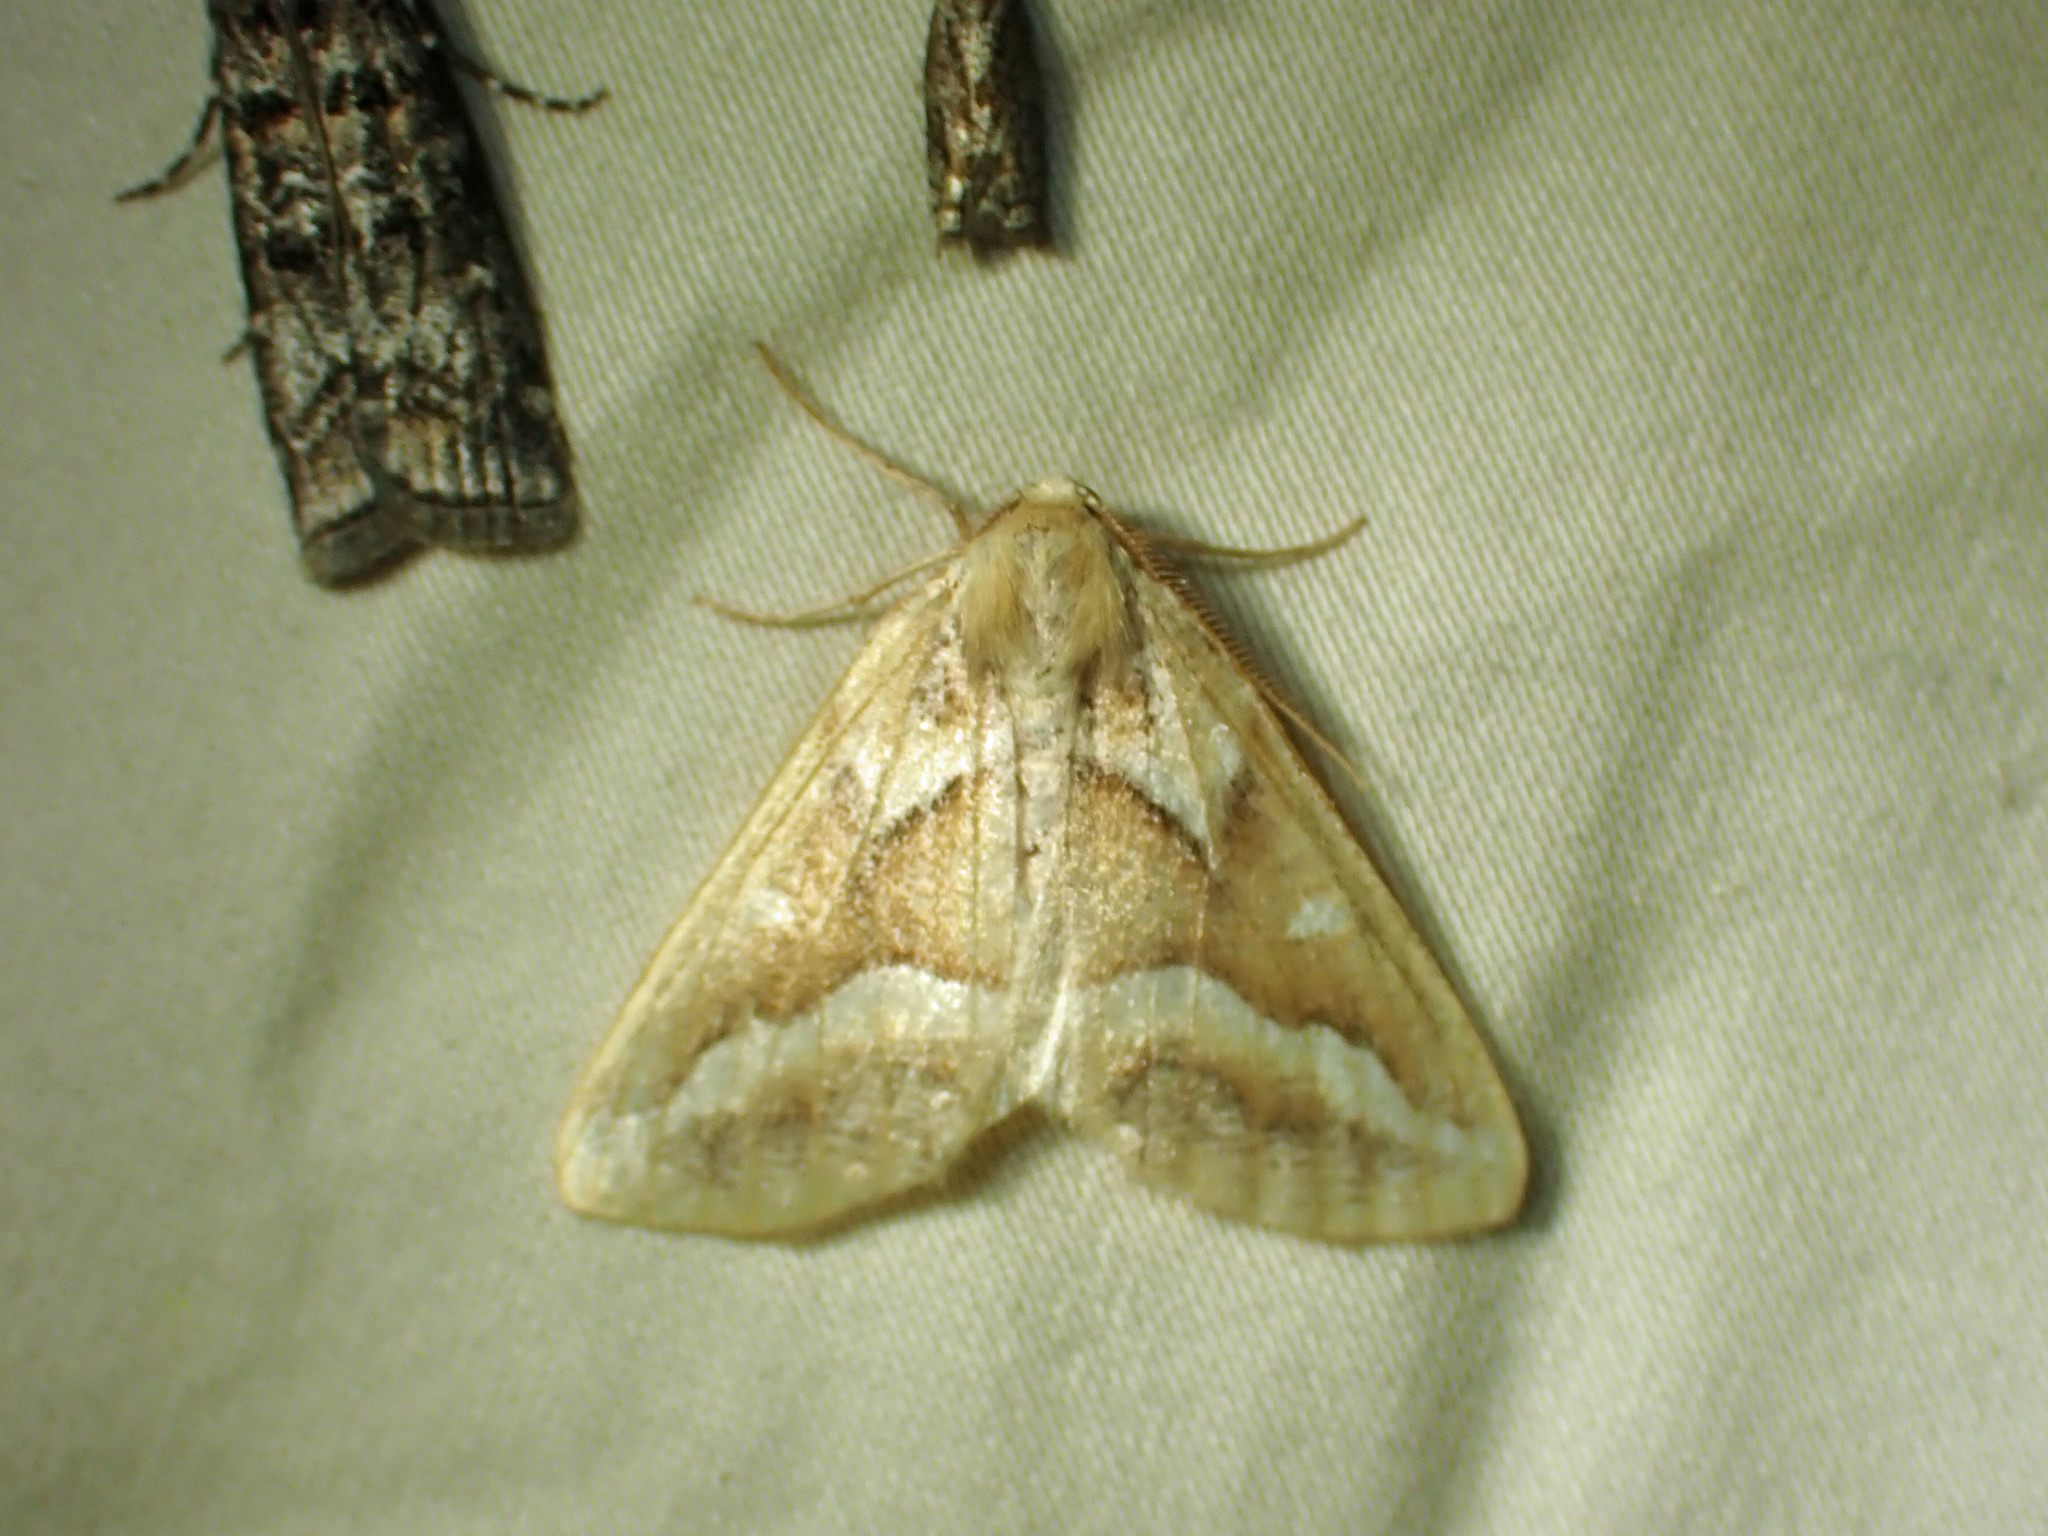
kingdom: Animalia
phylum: Arthropoda
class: Insecta
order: Lepidoptera
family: Geometridae
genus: Caripeta
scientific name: Caripeta angustiorata
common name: Brown pine looper
